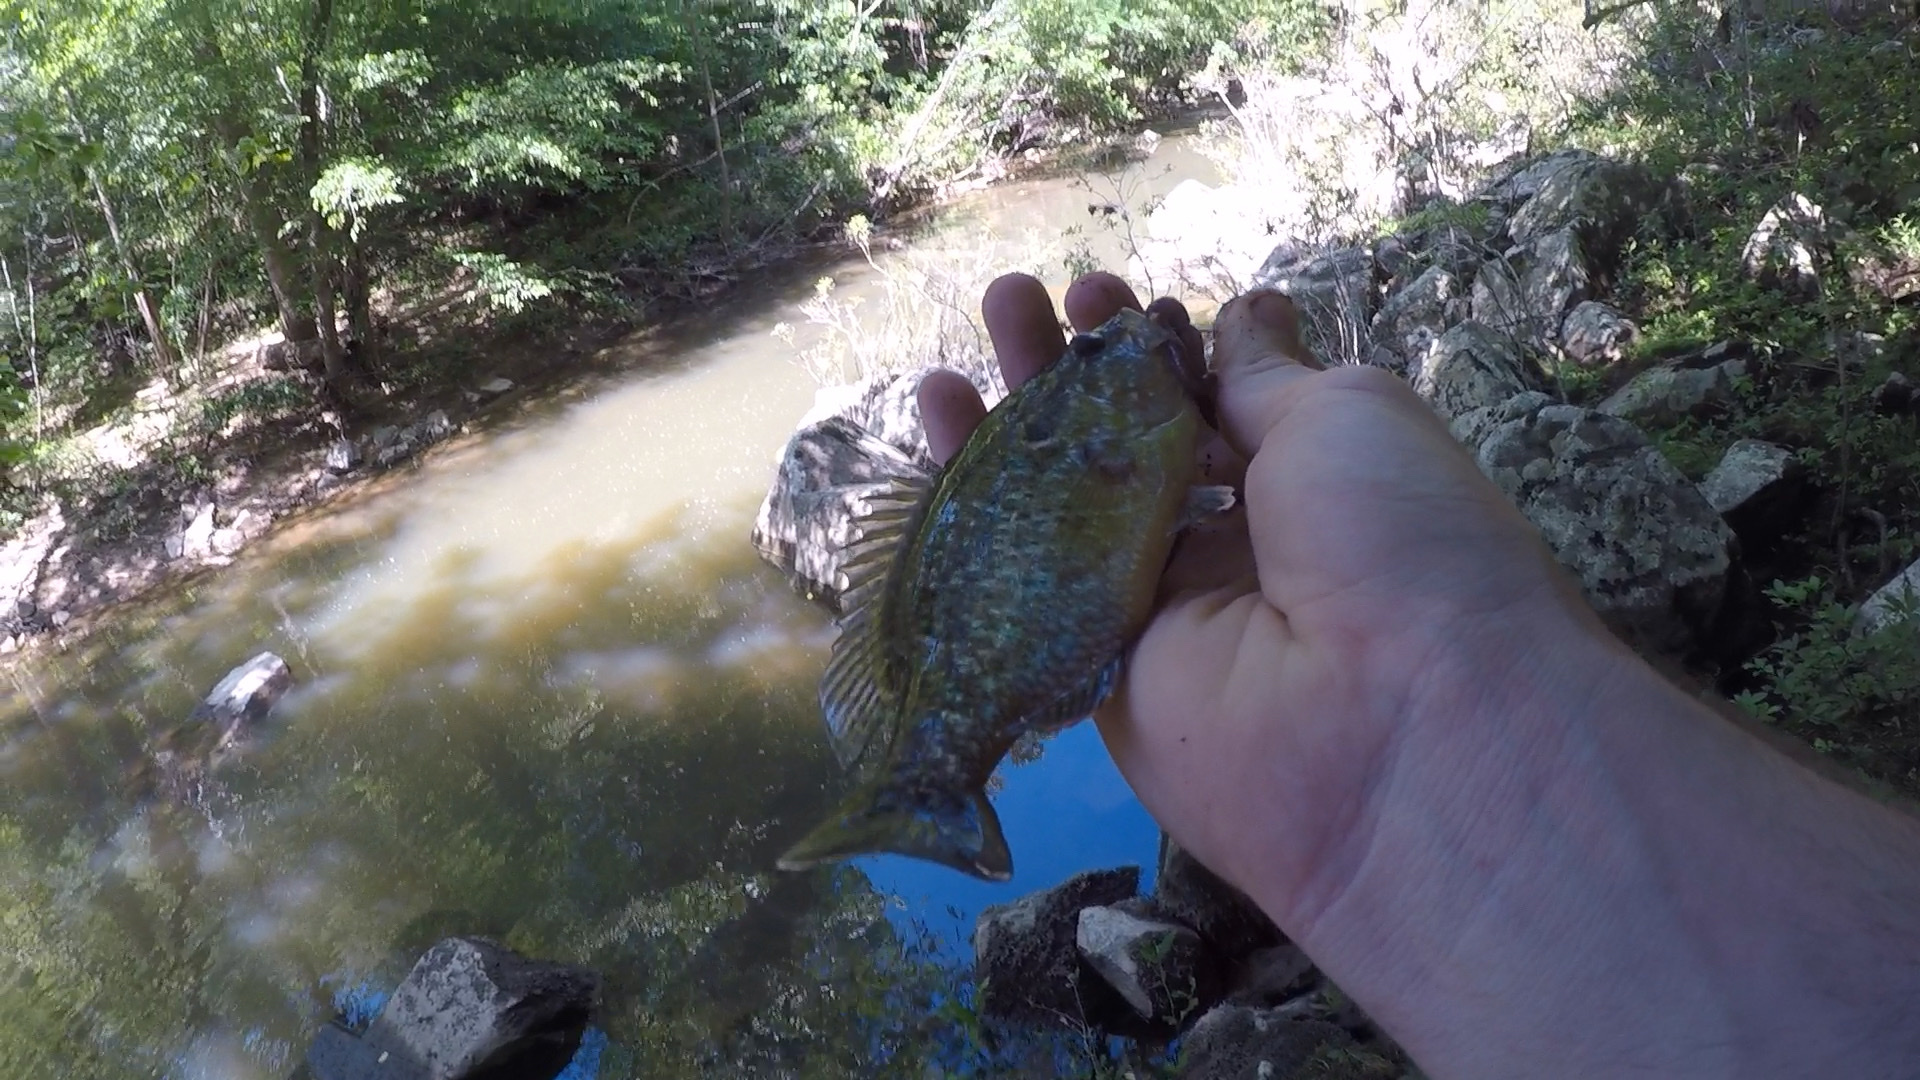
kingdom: Animalia
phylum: Chordata
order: Perciformes
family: Centrarchidae
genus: Lepomis
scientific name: Lepomis gulosus
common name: Warmouth
